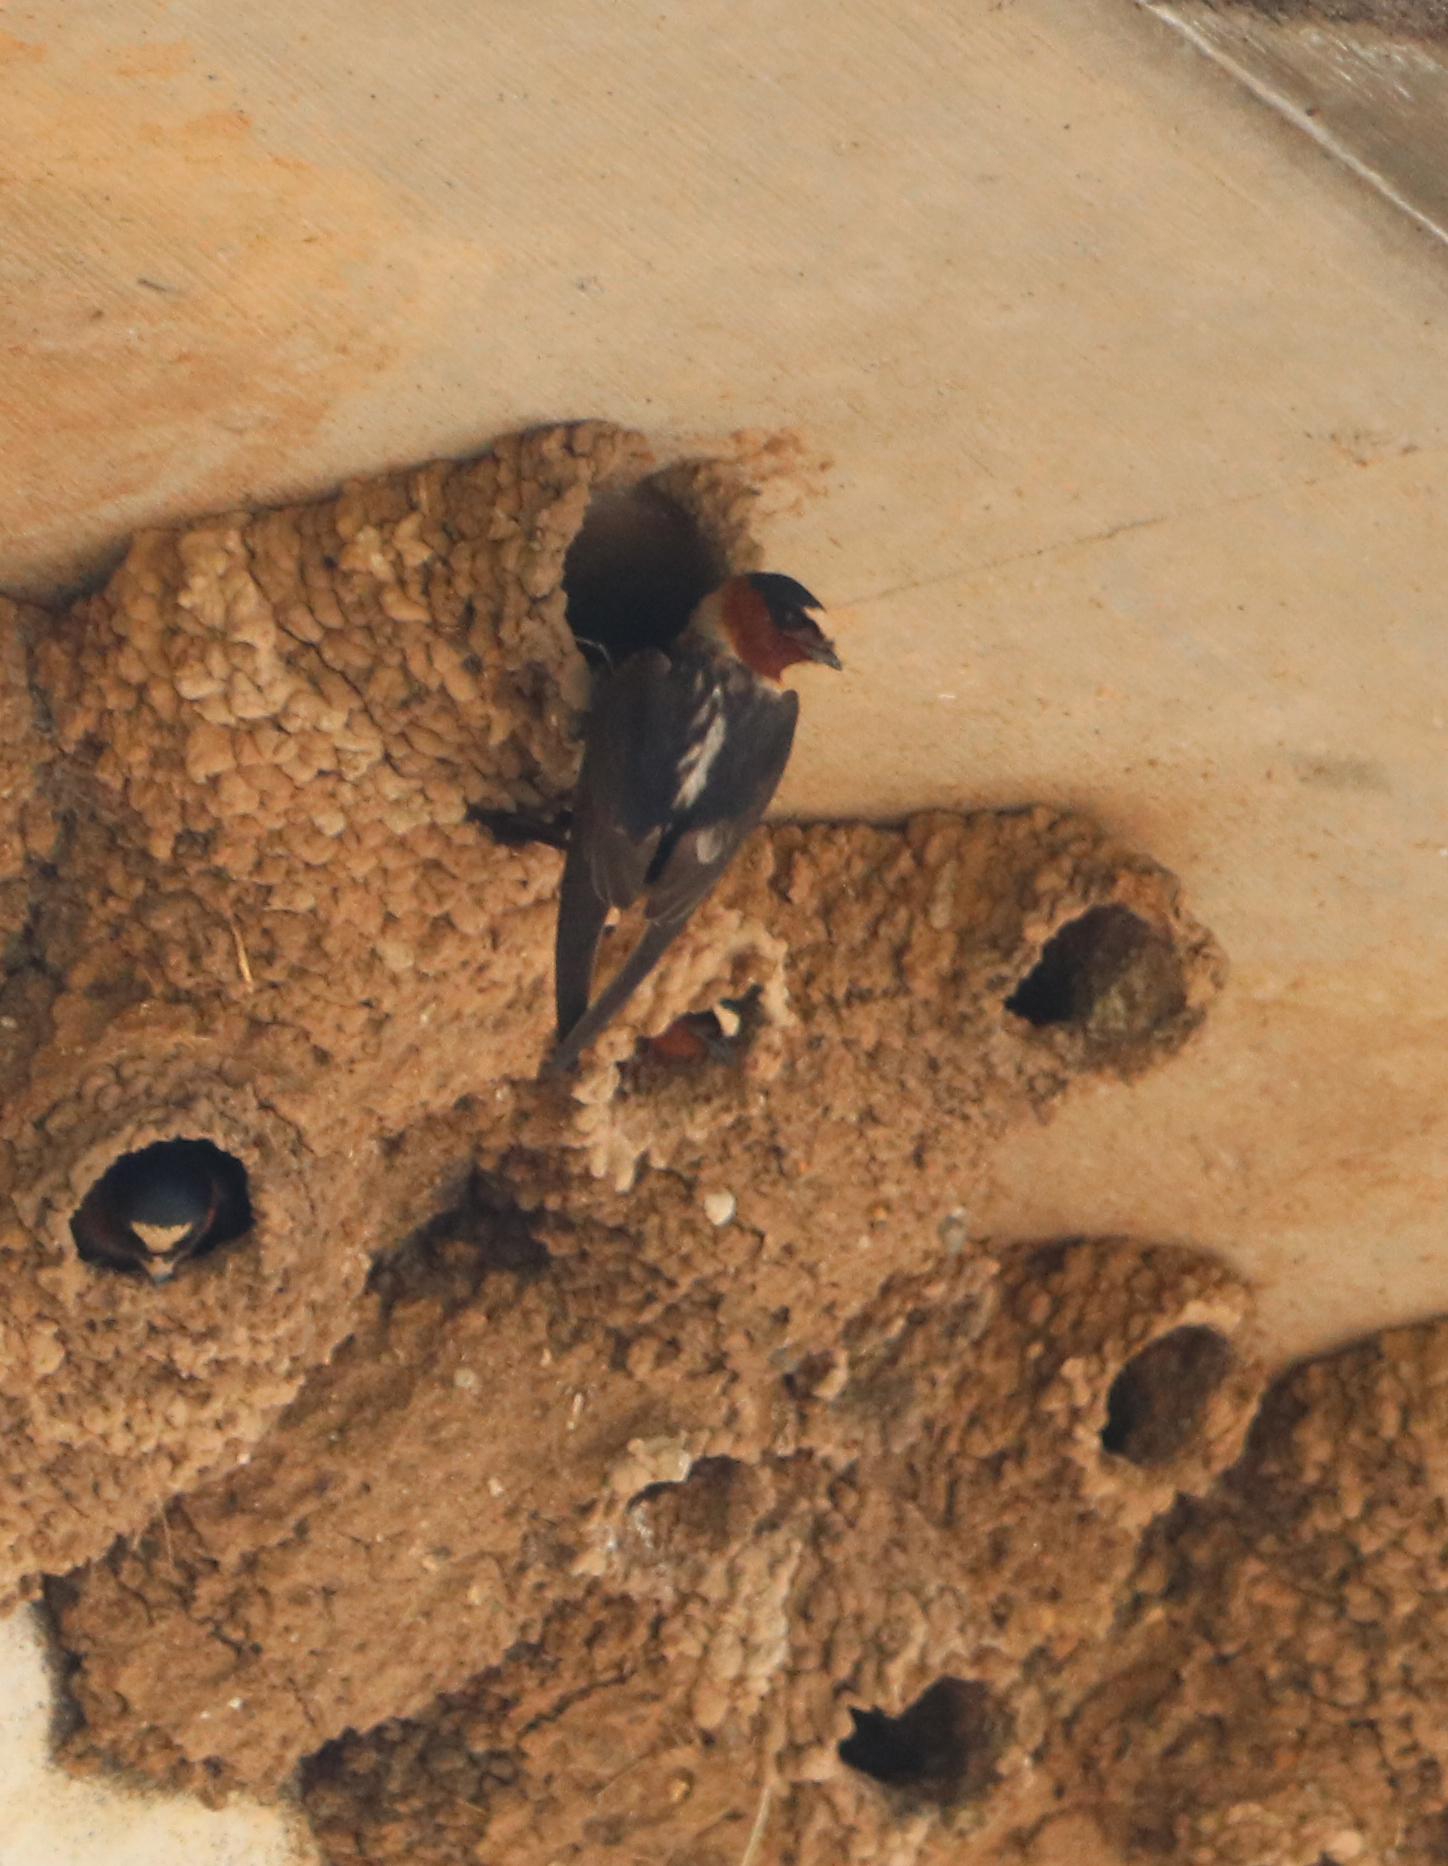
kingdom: Animalia
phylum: Chordata
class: Aves
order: Passeriformes
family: Hirundinidae
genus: Petrochelidon
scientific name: Petrochelidon pyrrhonota
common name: American cliff swallow
